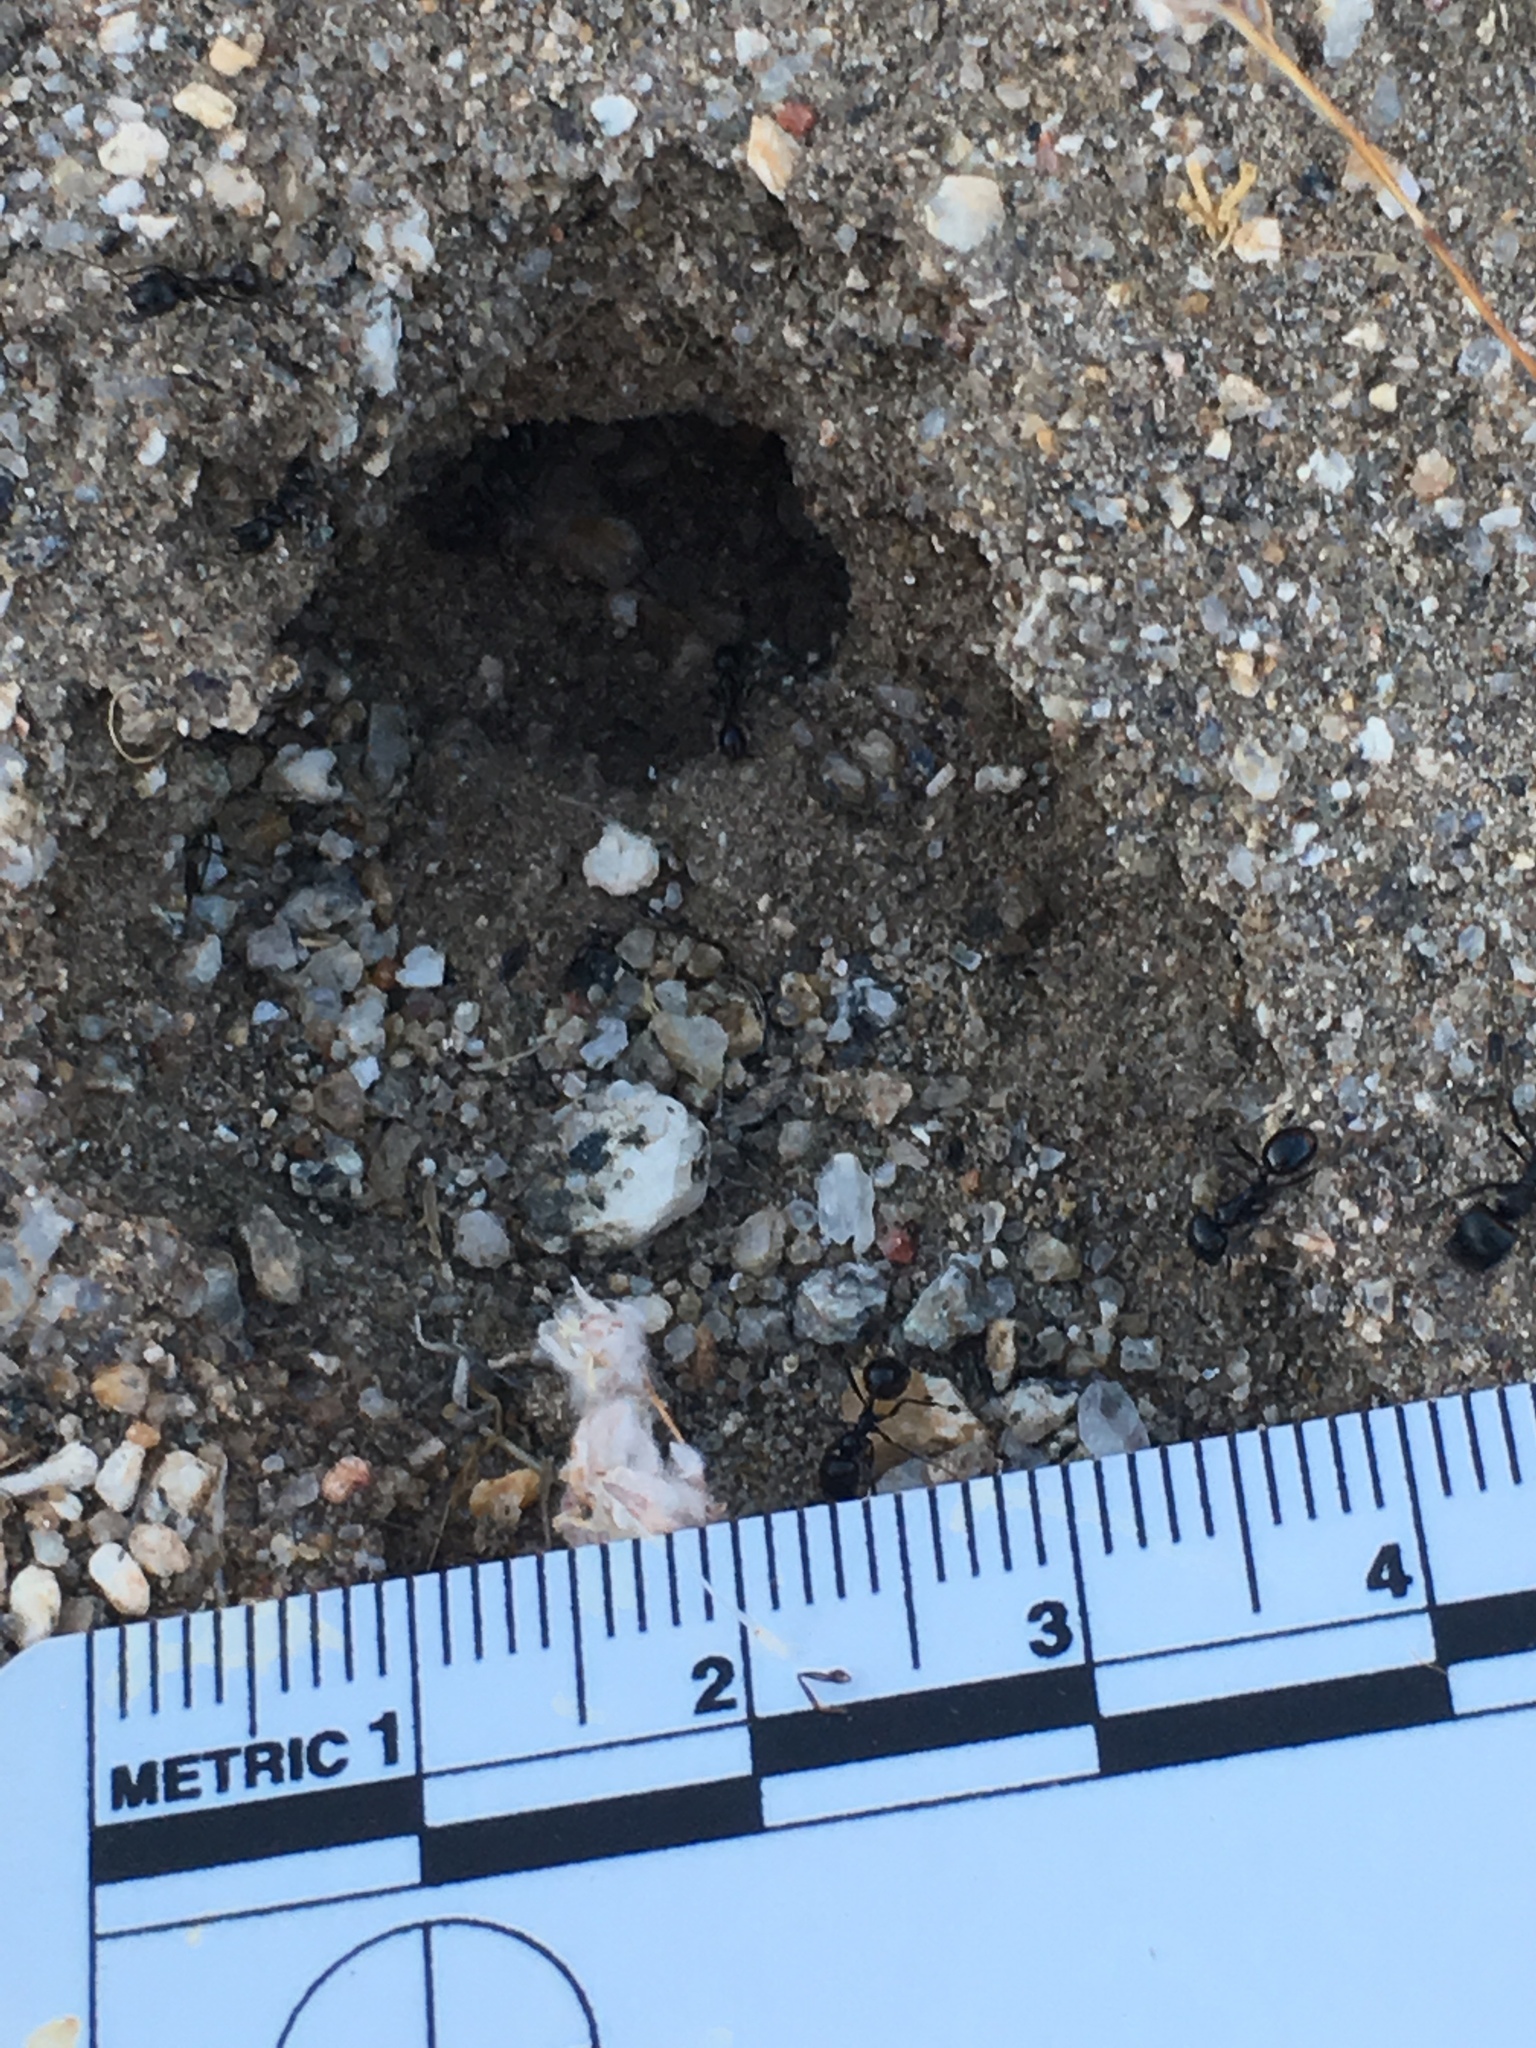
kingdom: Animalia
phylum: Arthropoda
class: Insecta
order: Hymenoptera
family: Formicidae
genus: Messor
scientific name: Messor pergandei
